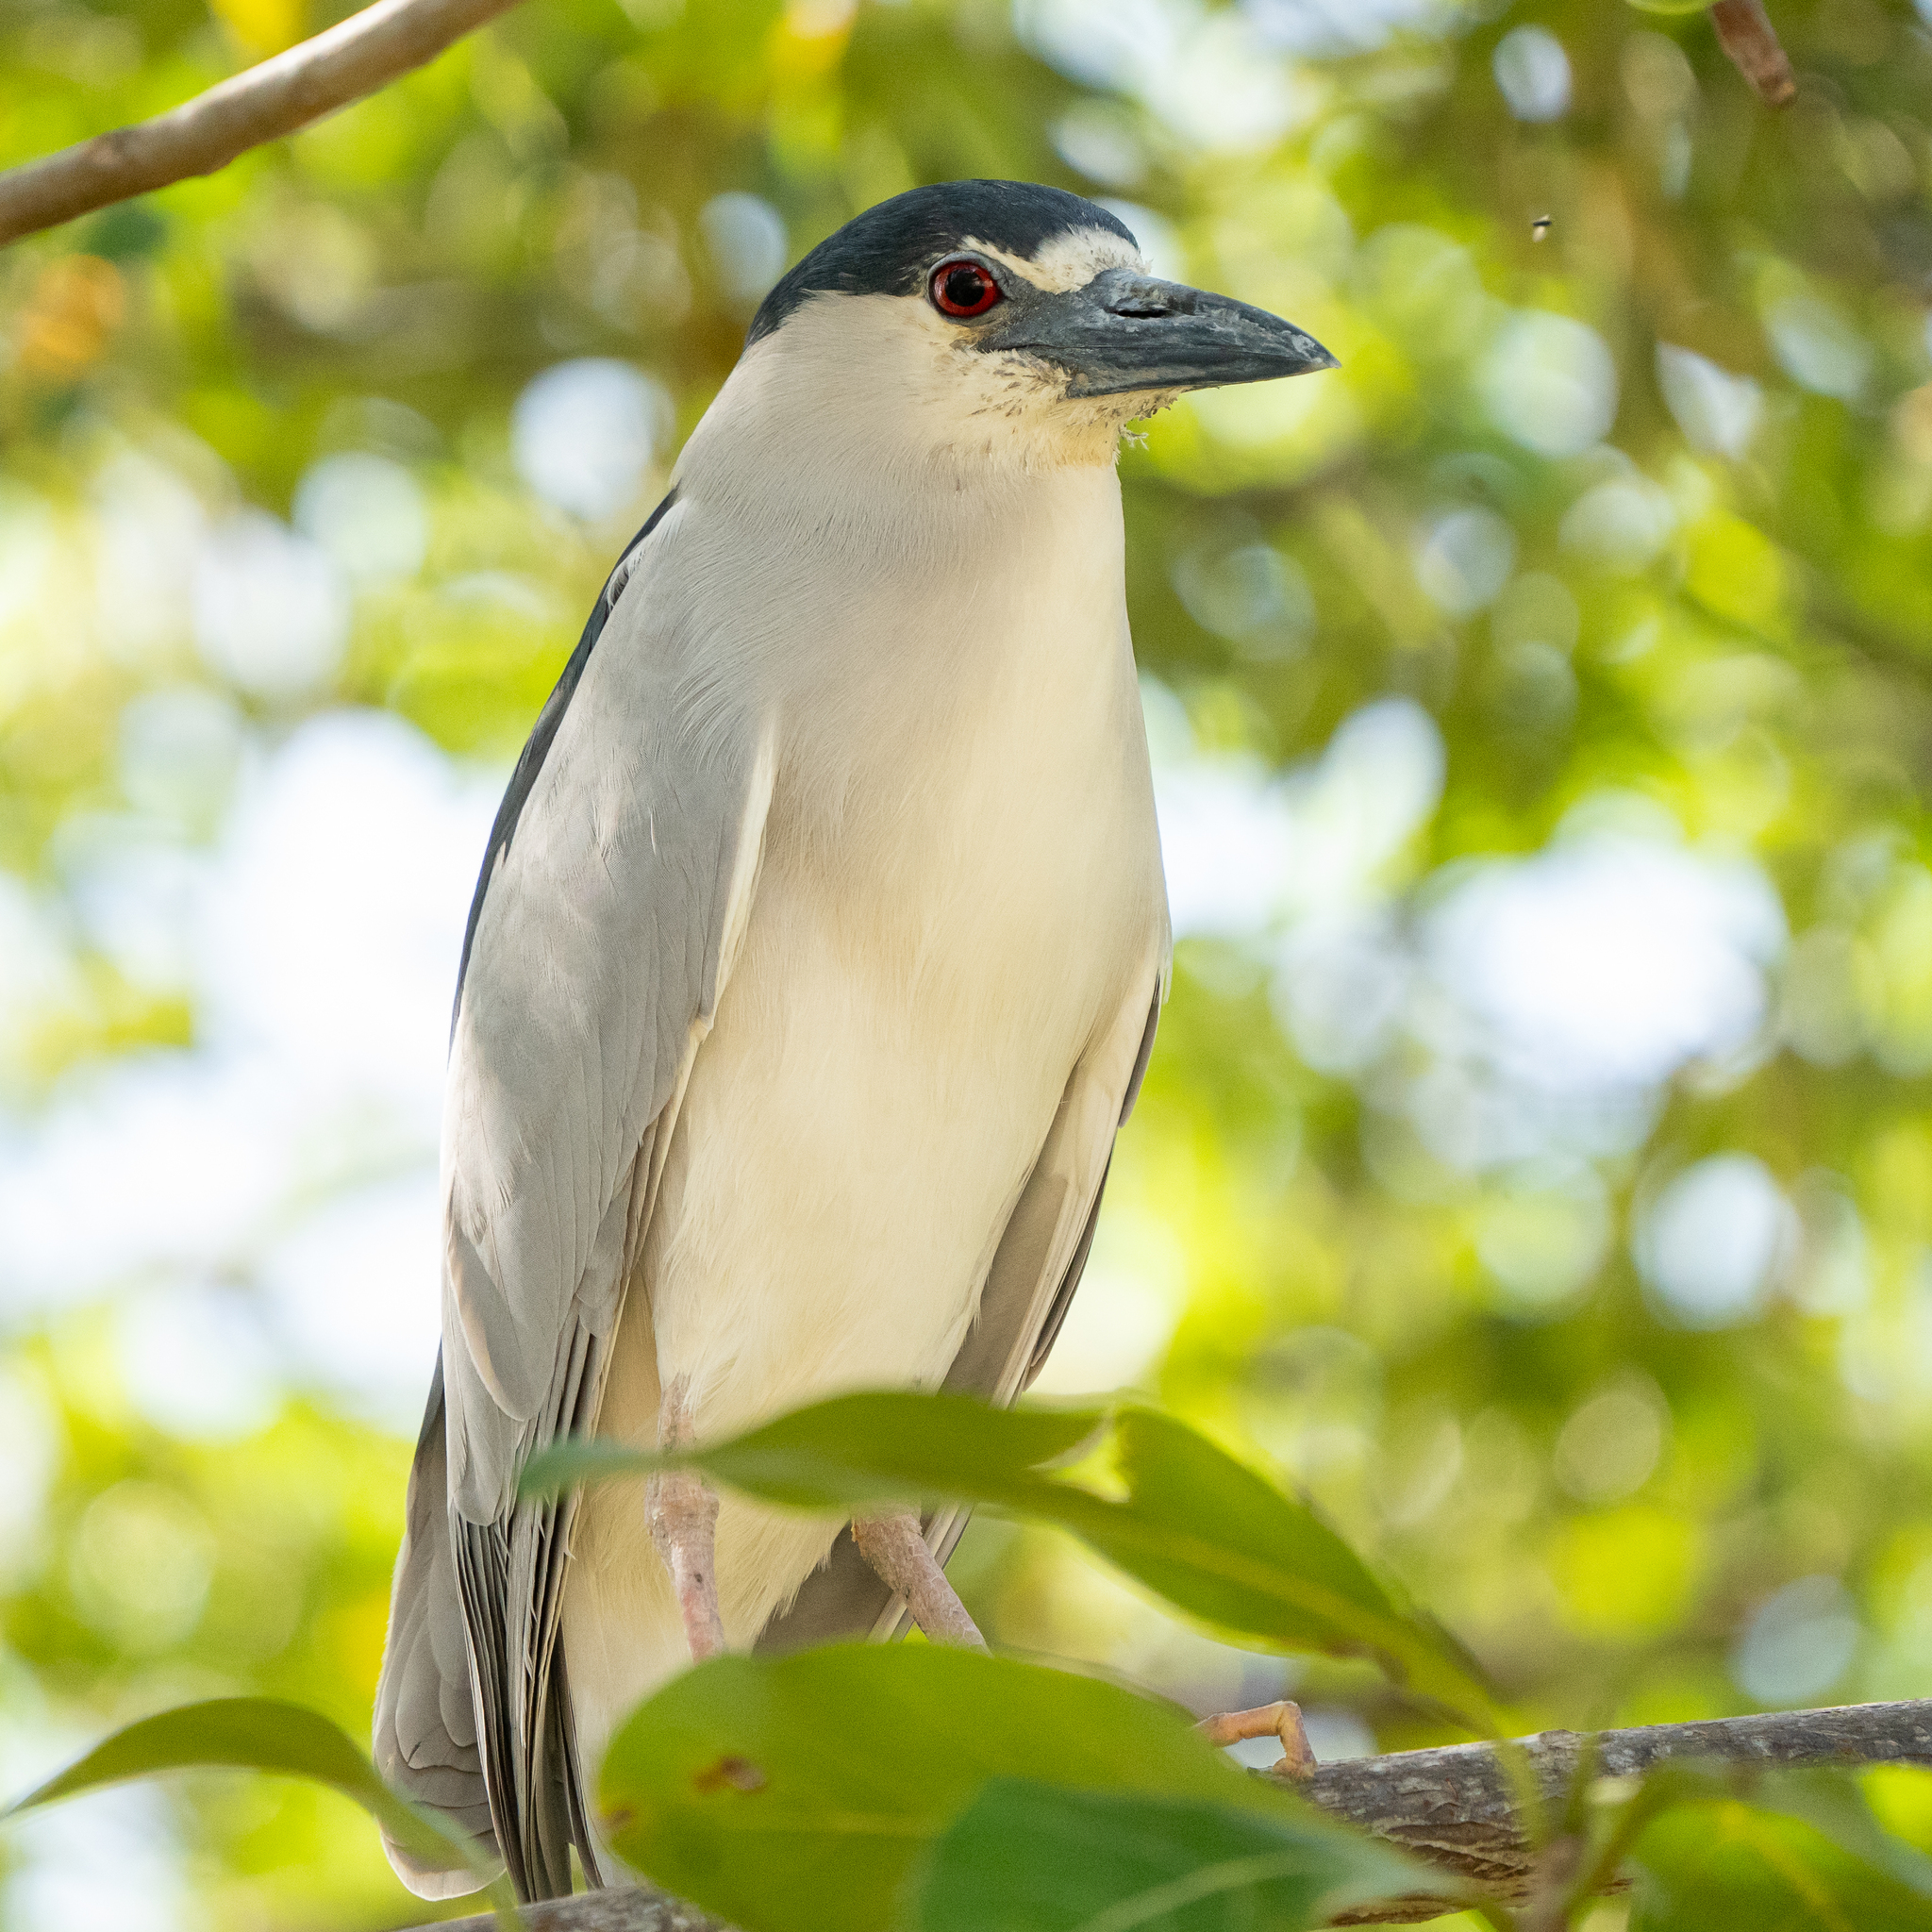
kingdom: Animalia
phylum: Chordata
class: Aves
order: Pelecaniformes
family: Ardeidae
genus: Nycticorax
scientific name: Nycticorax nycticorax
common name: Black-crowned night heron
